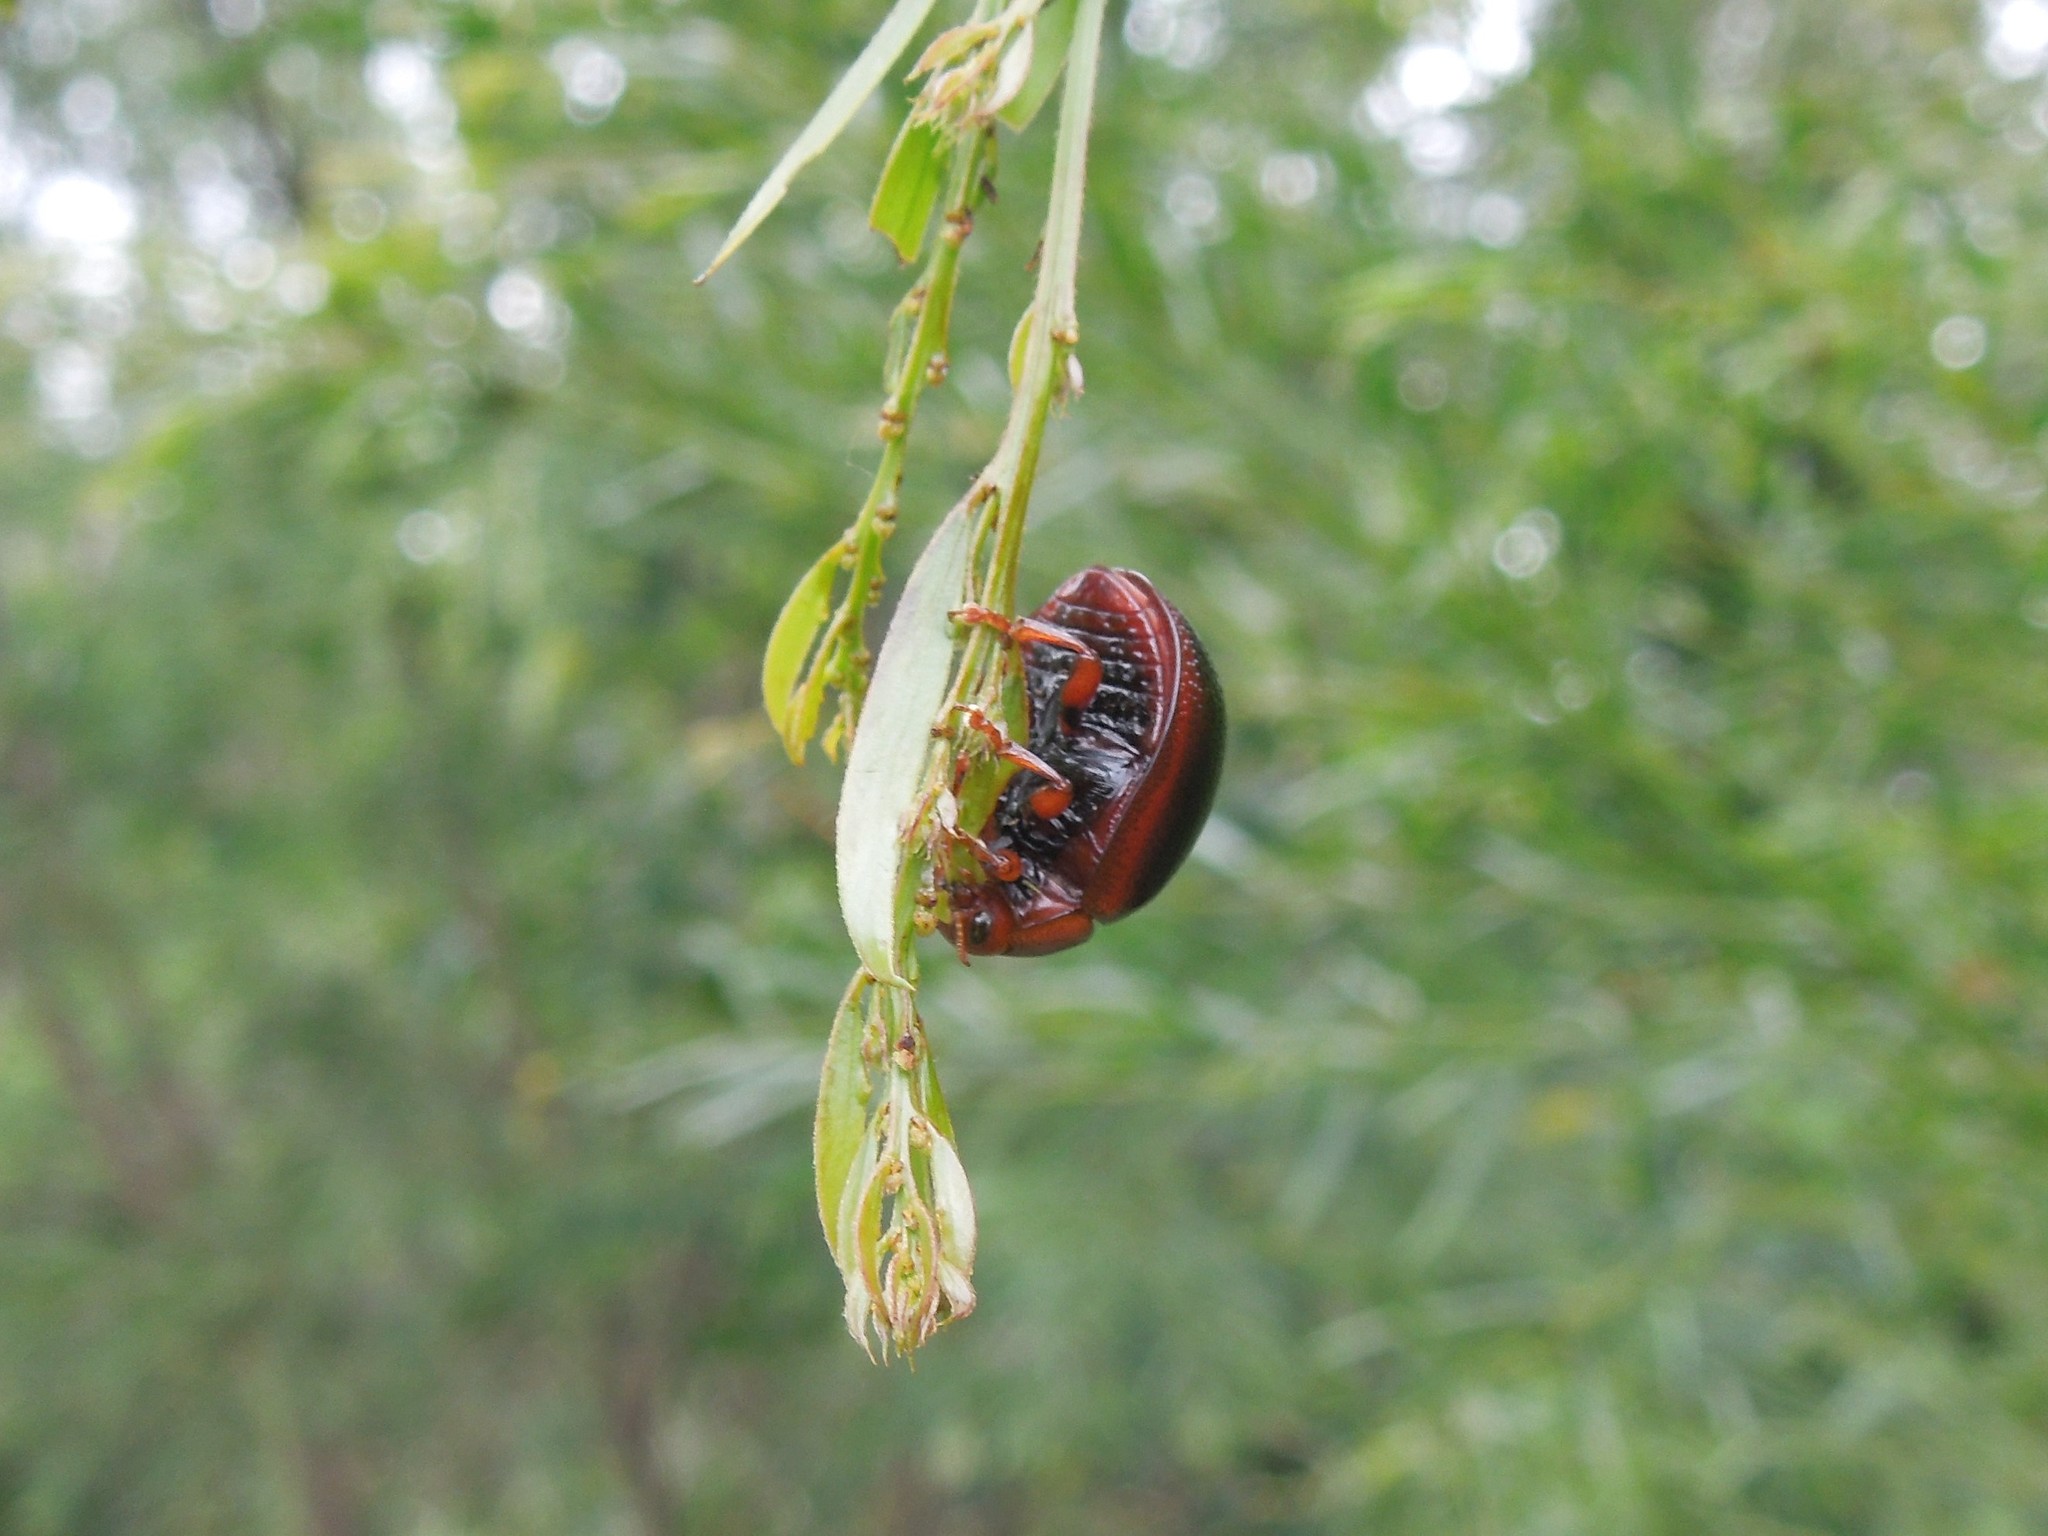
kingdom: Animalia
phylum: Arthropoda
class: Insecta
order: Coleoptera
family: Chrysomelidae
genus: Dicranosterna
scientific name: Dicranosterna
